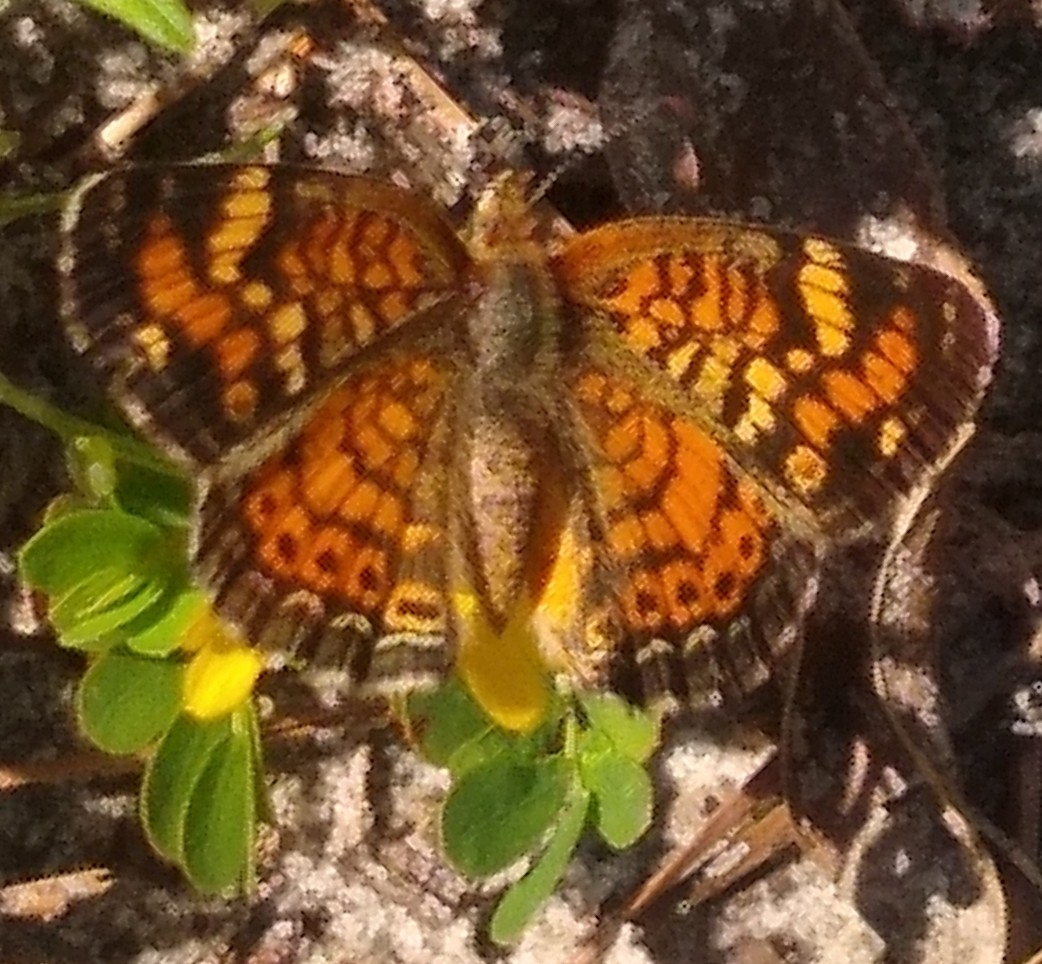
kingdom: Animalia
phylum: Arthropoda
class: Insecta
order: Lepidoptera
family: Nymphalidae
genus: Phyciodes
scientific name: Phyciodes phaon
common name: Phaon crescent
